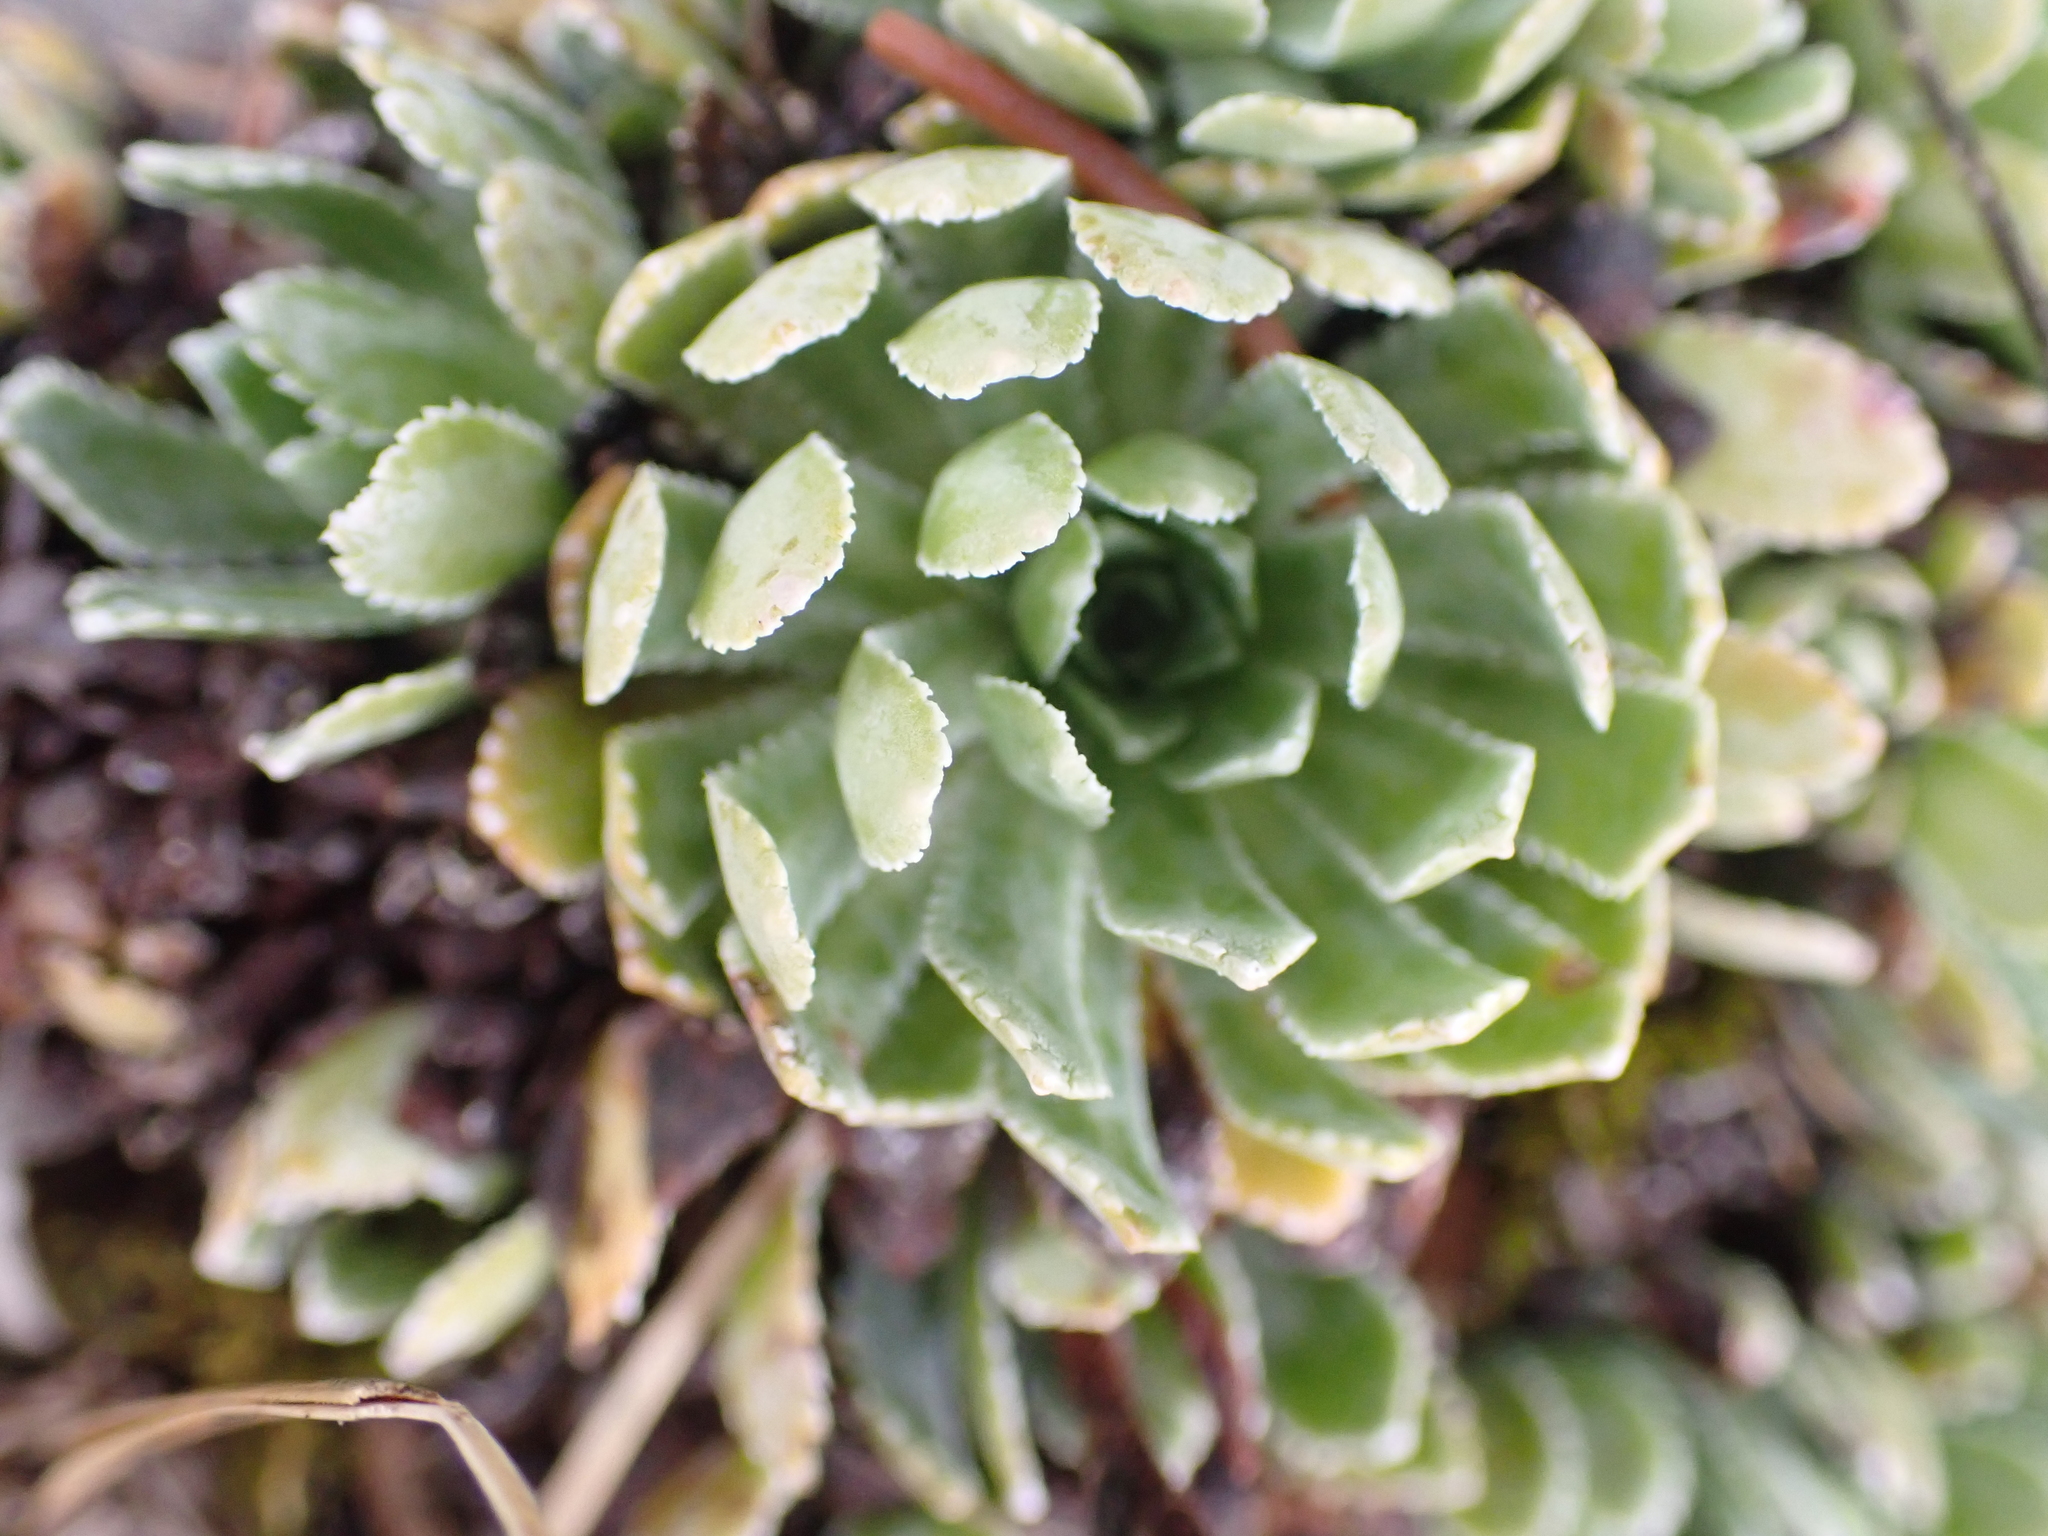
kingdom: Plantae
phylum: Tracheophyta
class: Magnoliopsida
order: Saxifragales
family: Saxifragaceae
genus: Saxifraga
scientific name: Saxifraga paniculata
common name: Livelong saxifrage
